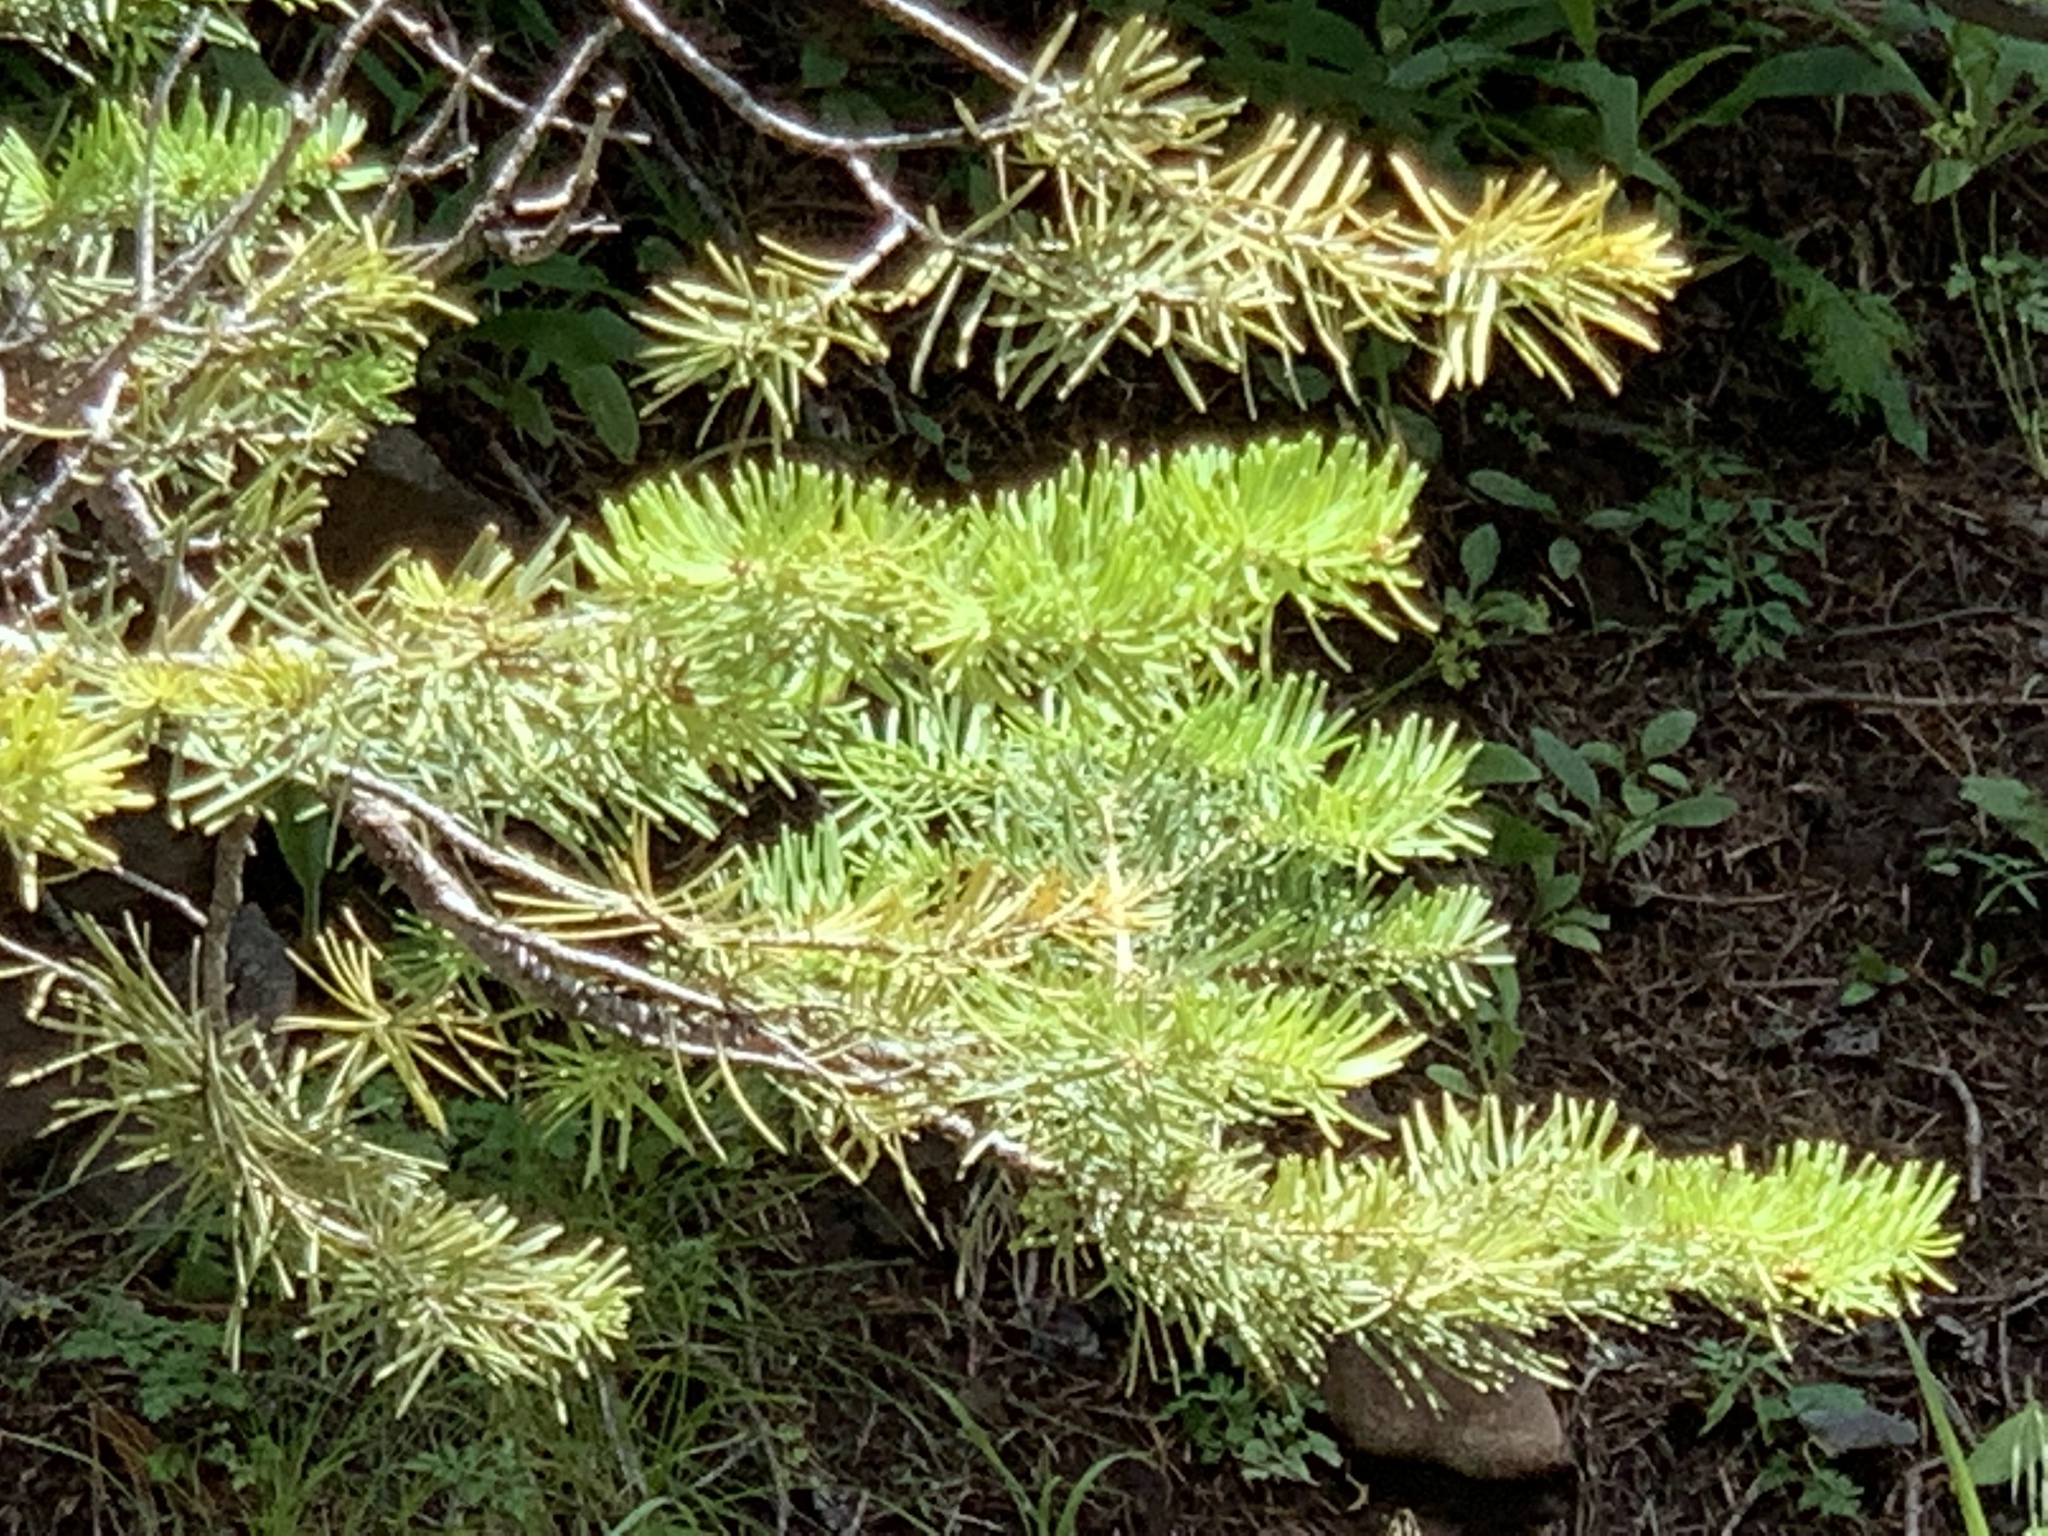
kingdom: Plantae
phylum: Tracheophyta
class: Pinopsida
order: Pinales
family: Pinaceae
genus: Abies
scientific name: Abies concolor
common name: Colorado fir
